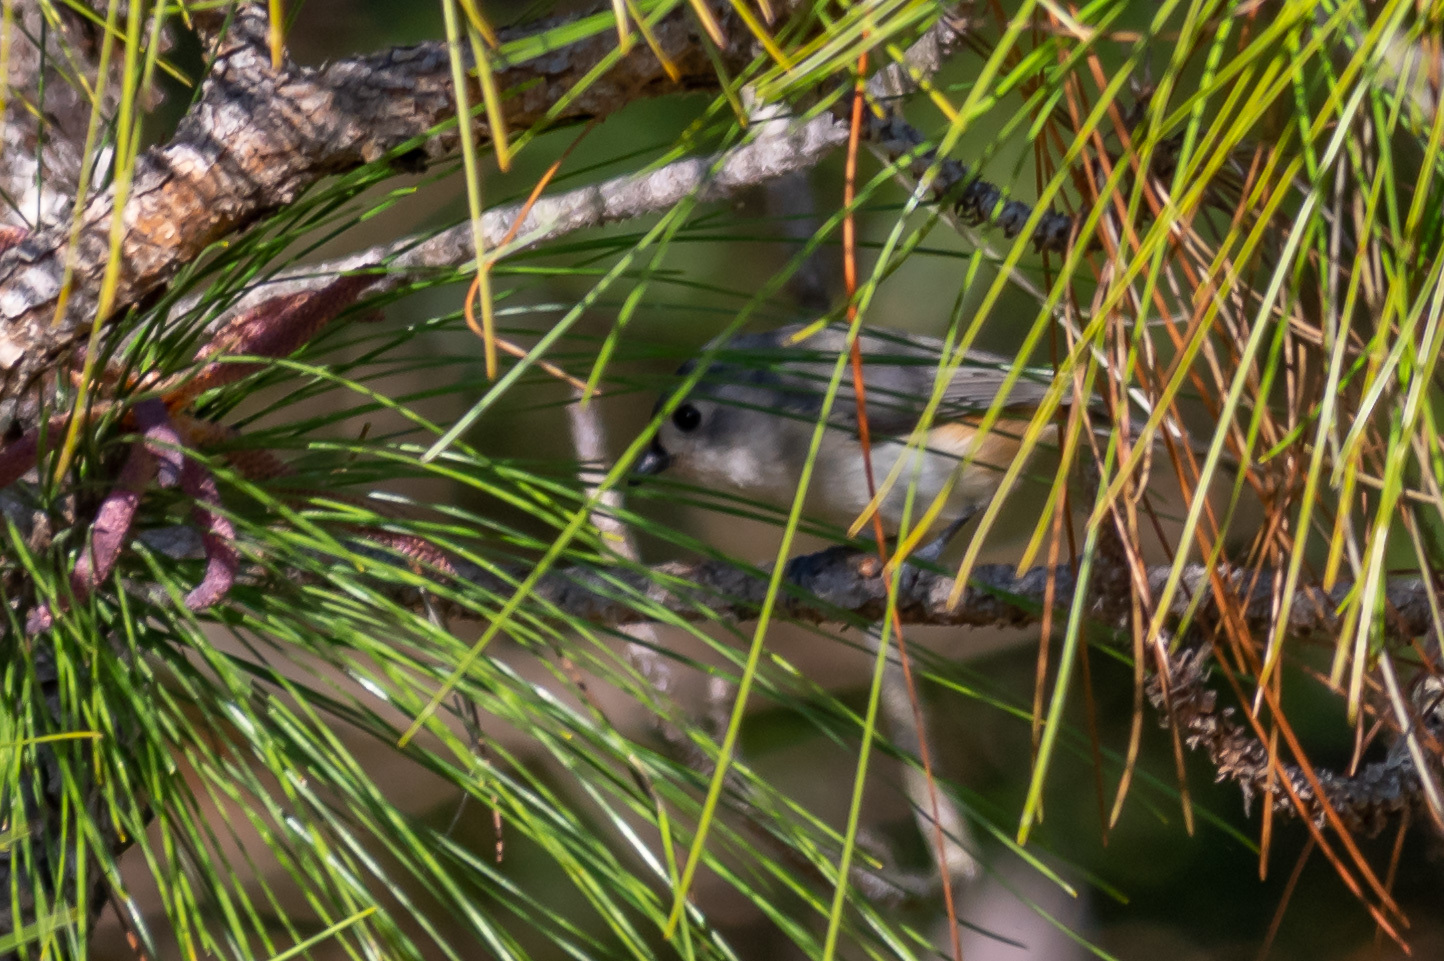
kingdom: Animalia
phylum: Chordata
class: Aves
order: Passeriformes
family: Paridae
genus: Baeolophus
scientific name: Baeolophus bicolor
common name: Tufted titmouse
